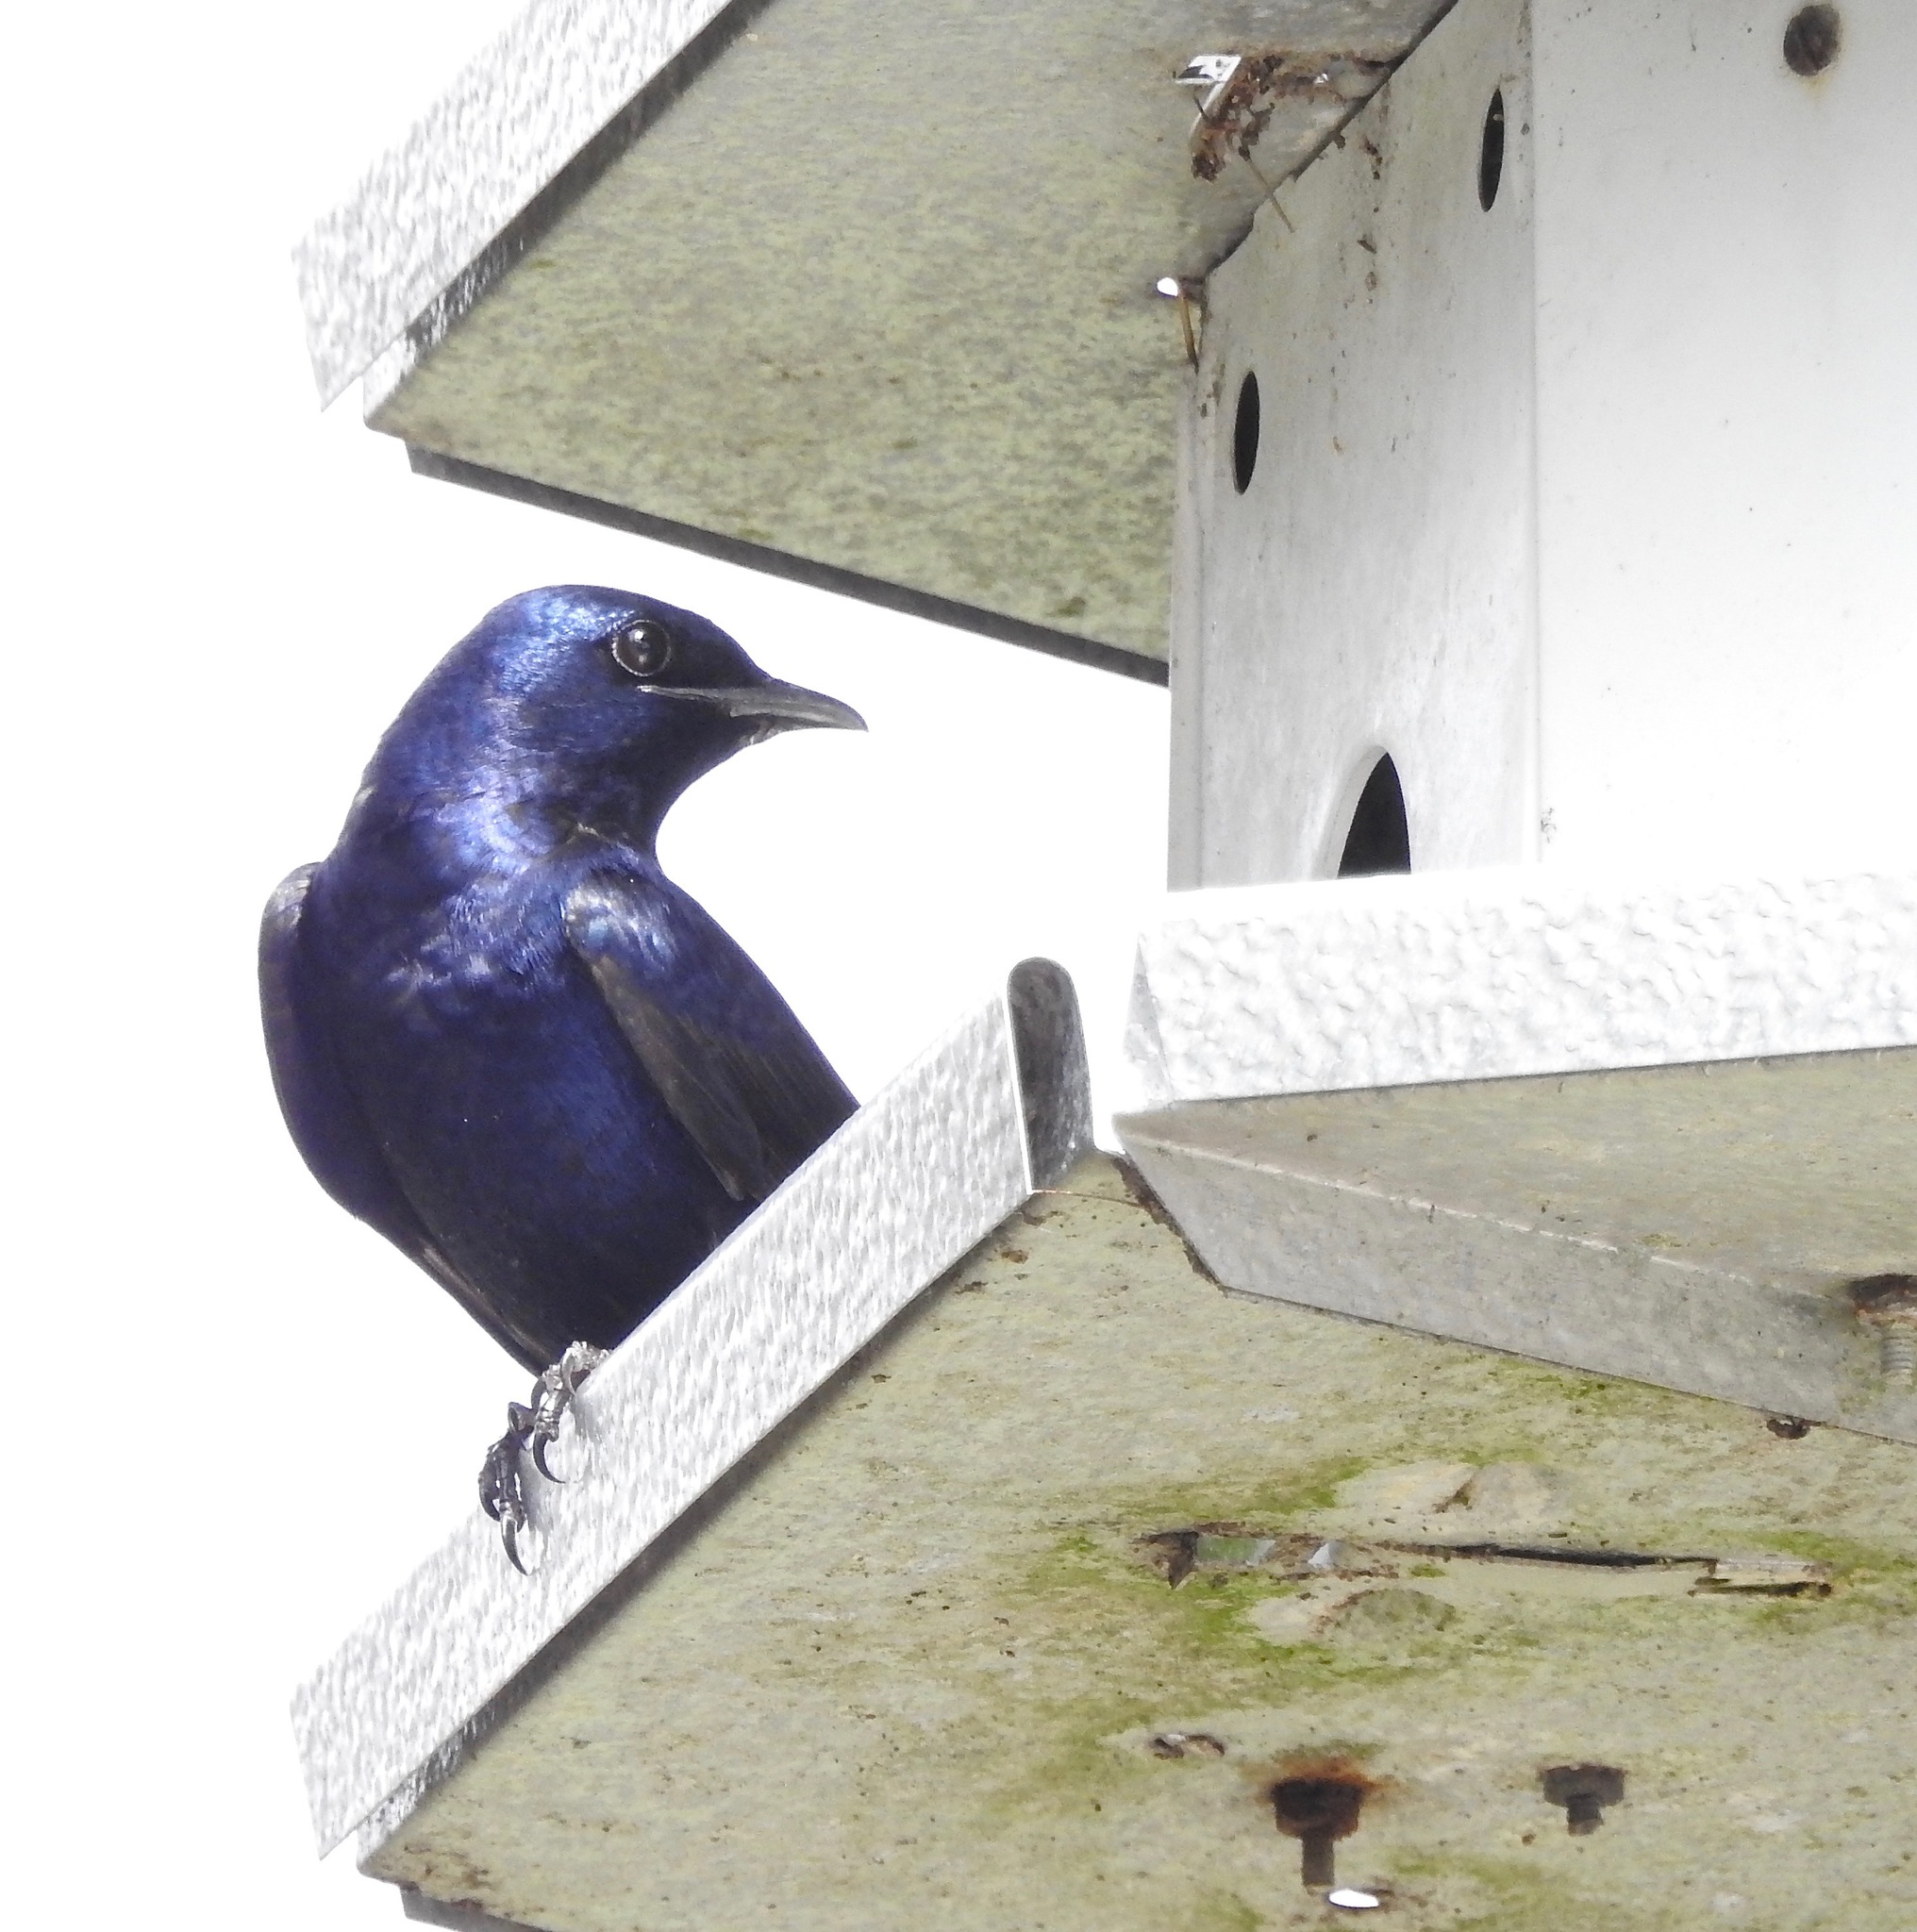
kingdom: Animalia
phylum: Chordata
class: Aves
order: Passeriformes
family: Hirundinidae
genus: Progne
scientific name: Progne subis
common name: Purple martin
